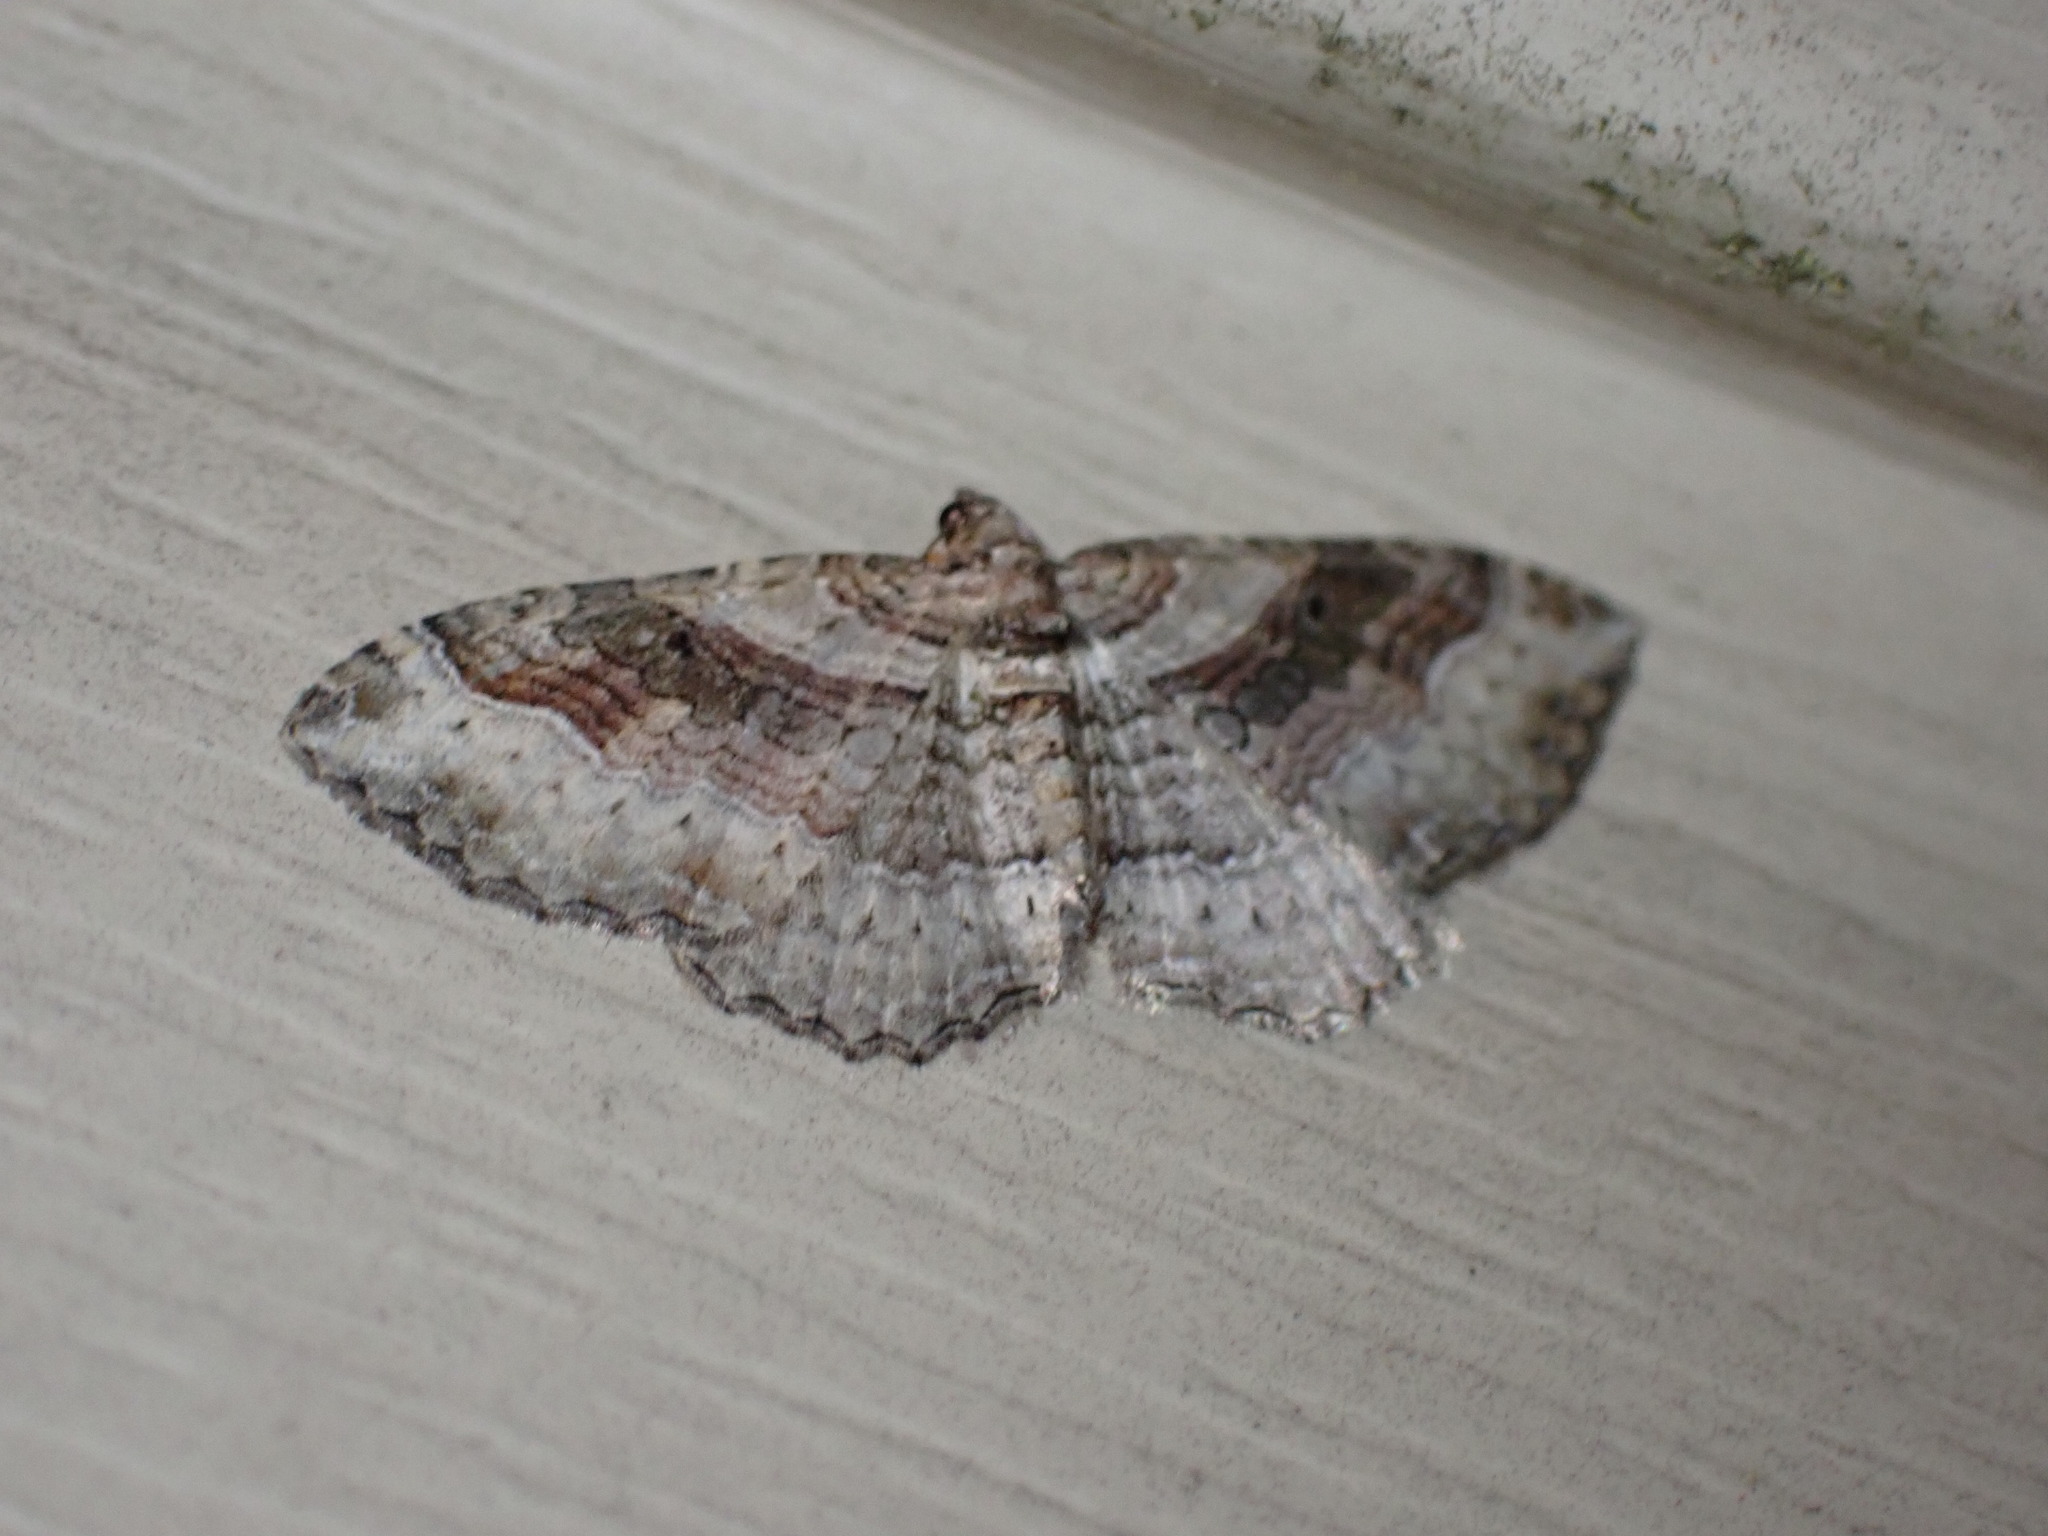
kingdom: Animalia
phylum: Arthropoda
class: Insecta
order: Lepidoptera
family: Geometridae
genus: Costaconvexa
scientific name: Costaconvexa centrostrigaria
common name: Bent-line carpet
